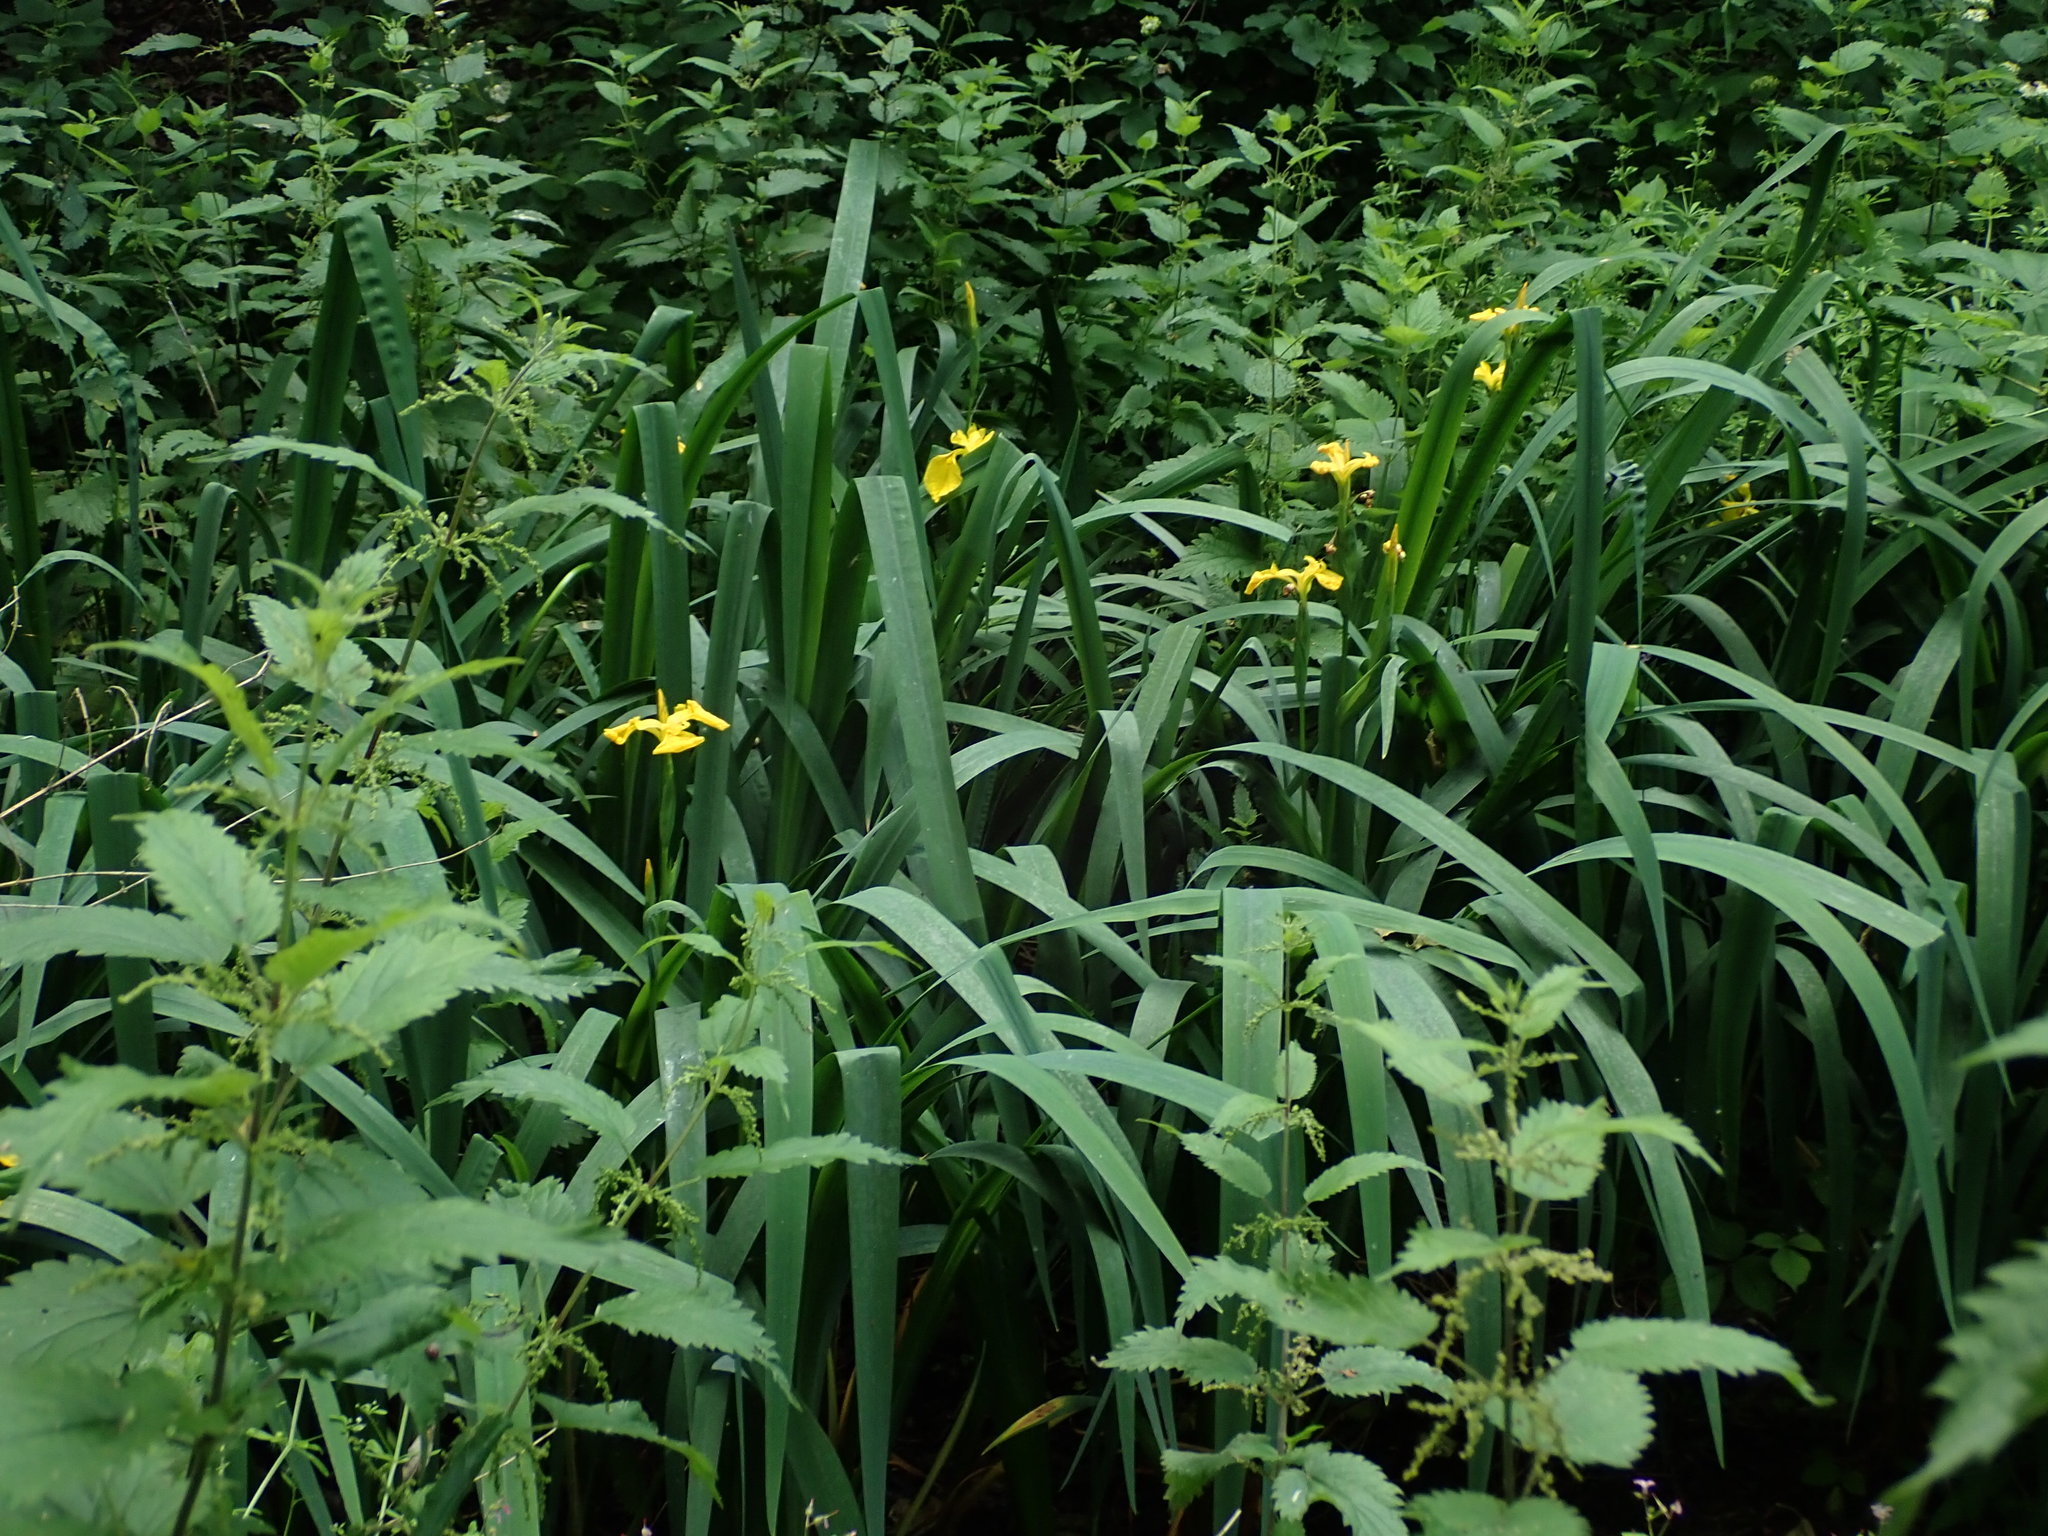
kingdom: Plantae
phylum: Tracheophyta
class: Liliopsida
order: Asparagales
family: Iridaceae
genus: Iris
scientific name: Iris pseudacorus
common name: Yellow flag
